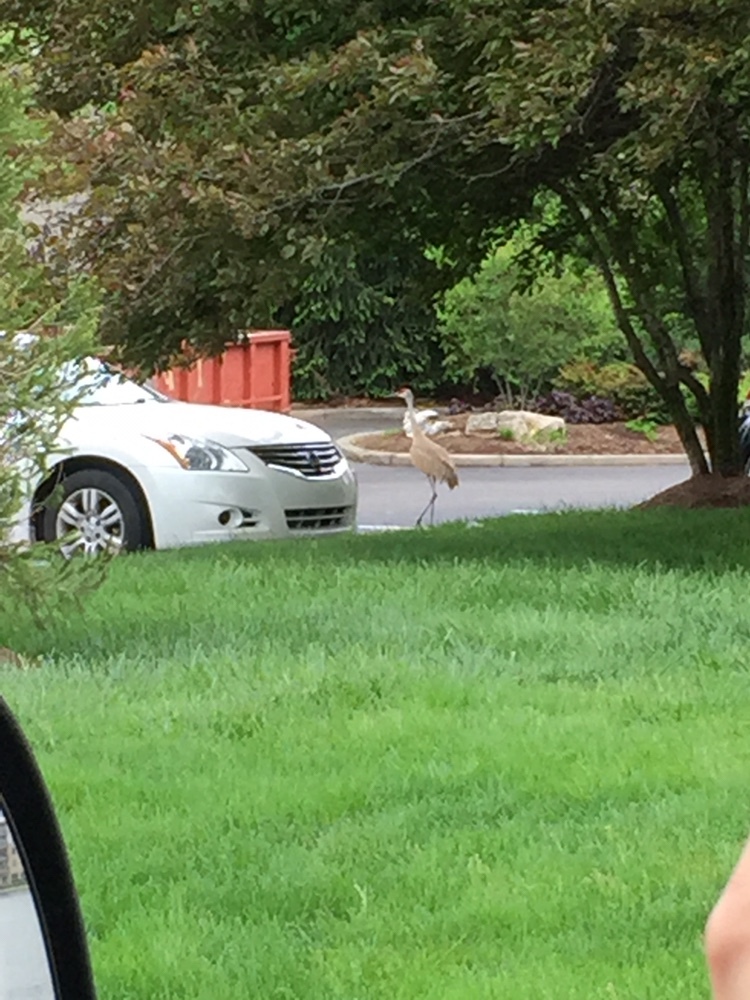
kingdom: Animalia
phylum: Chordata
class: Aves
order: Gruiformes
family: Gruidae
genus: Grus
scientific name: Grus canadensis
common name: Sandhill crane
